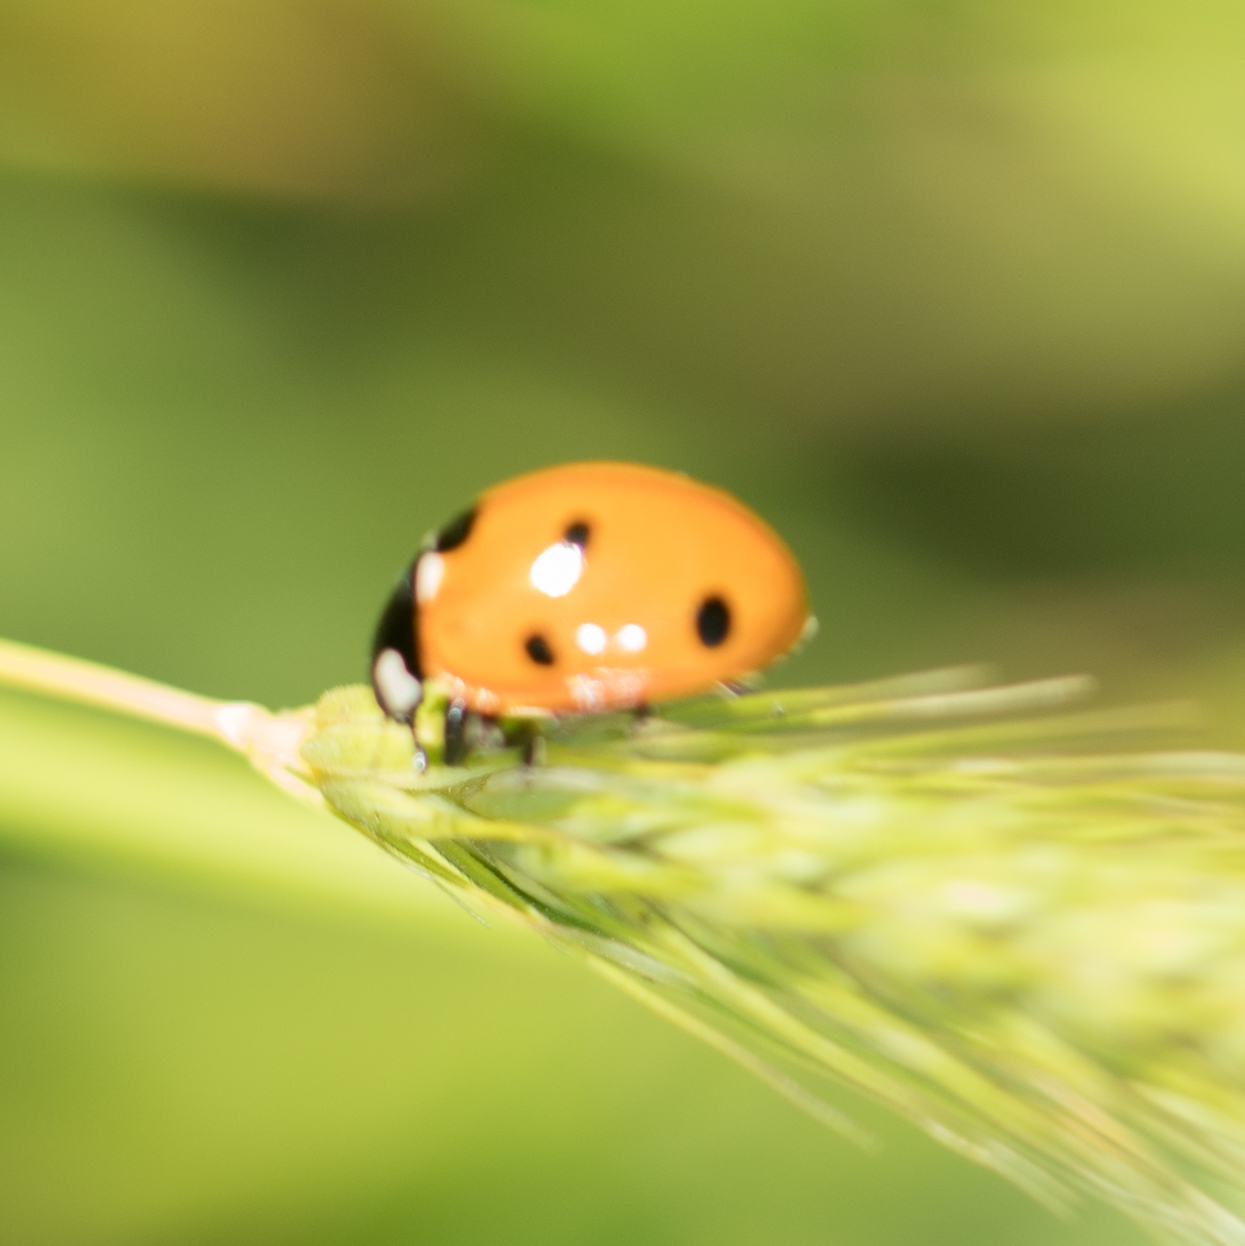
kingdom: Animalia
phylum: Arthropoda
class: Insecta
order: Coleoptera
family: Coccinellidae
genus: Coccinella
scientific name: Coccinella septempunctata
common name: Sevenspotted lady beetle
